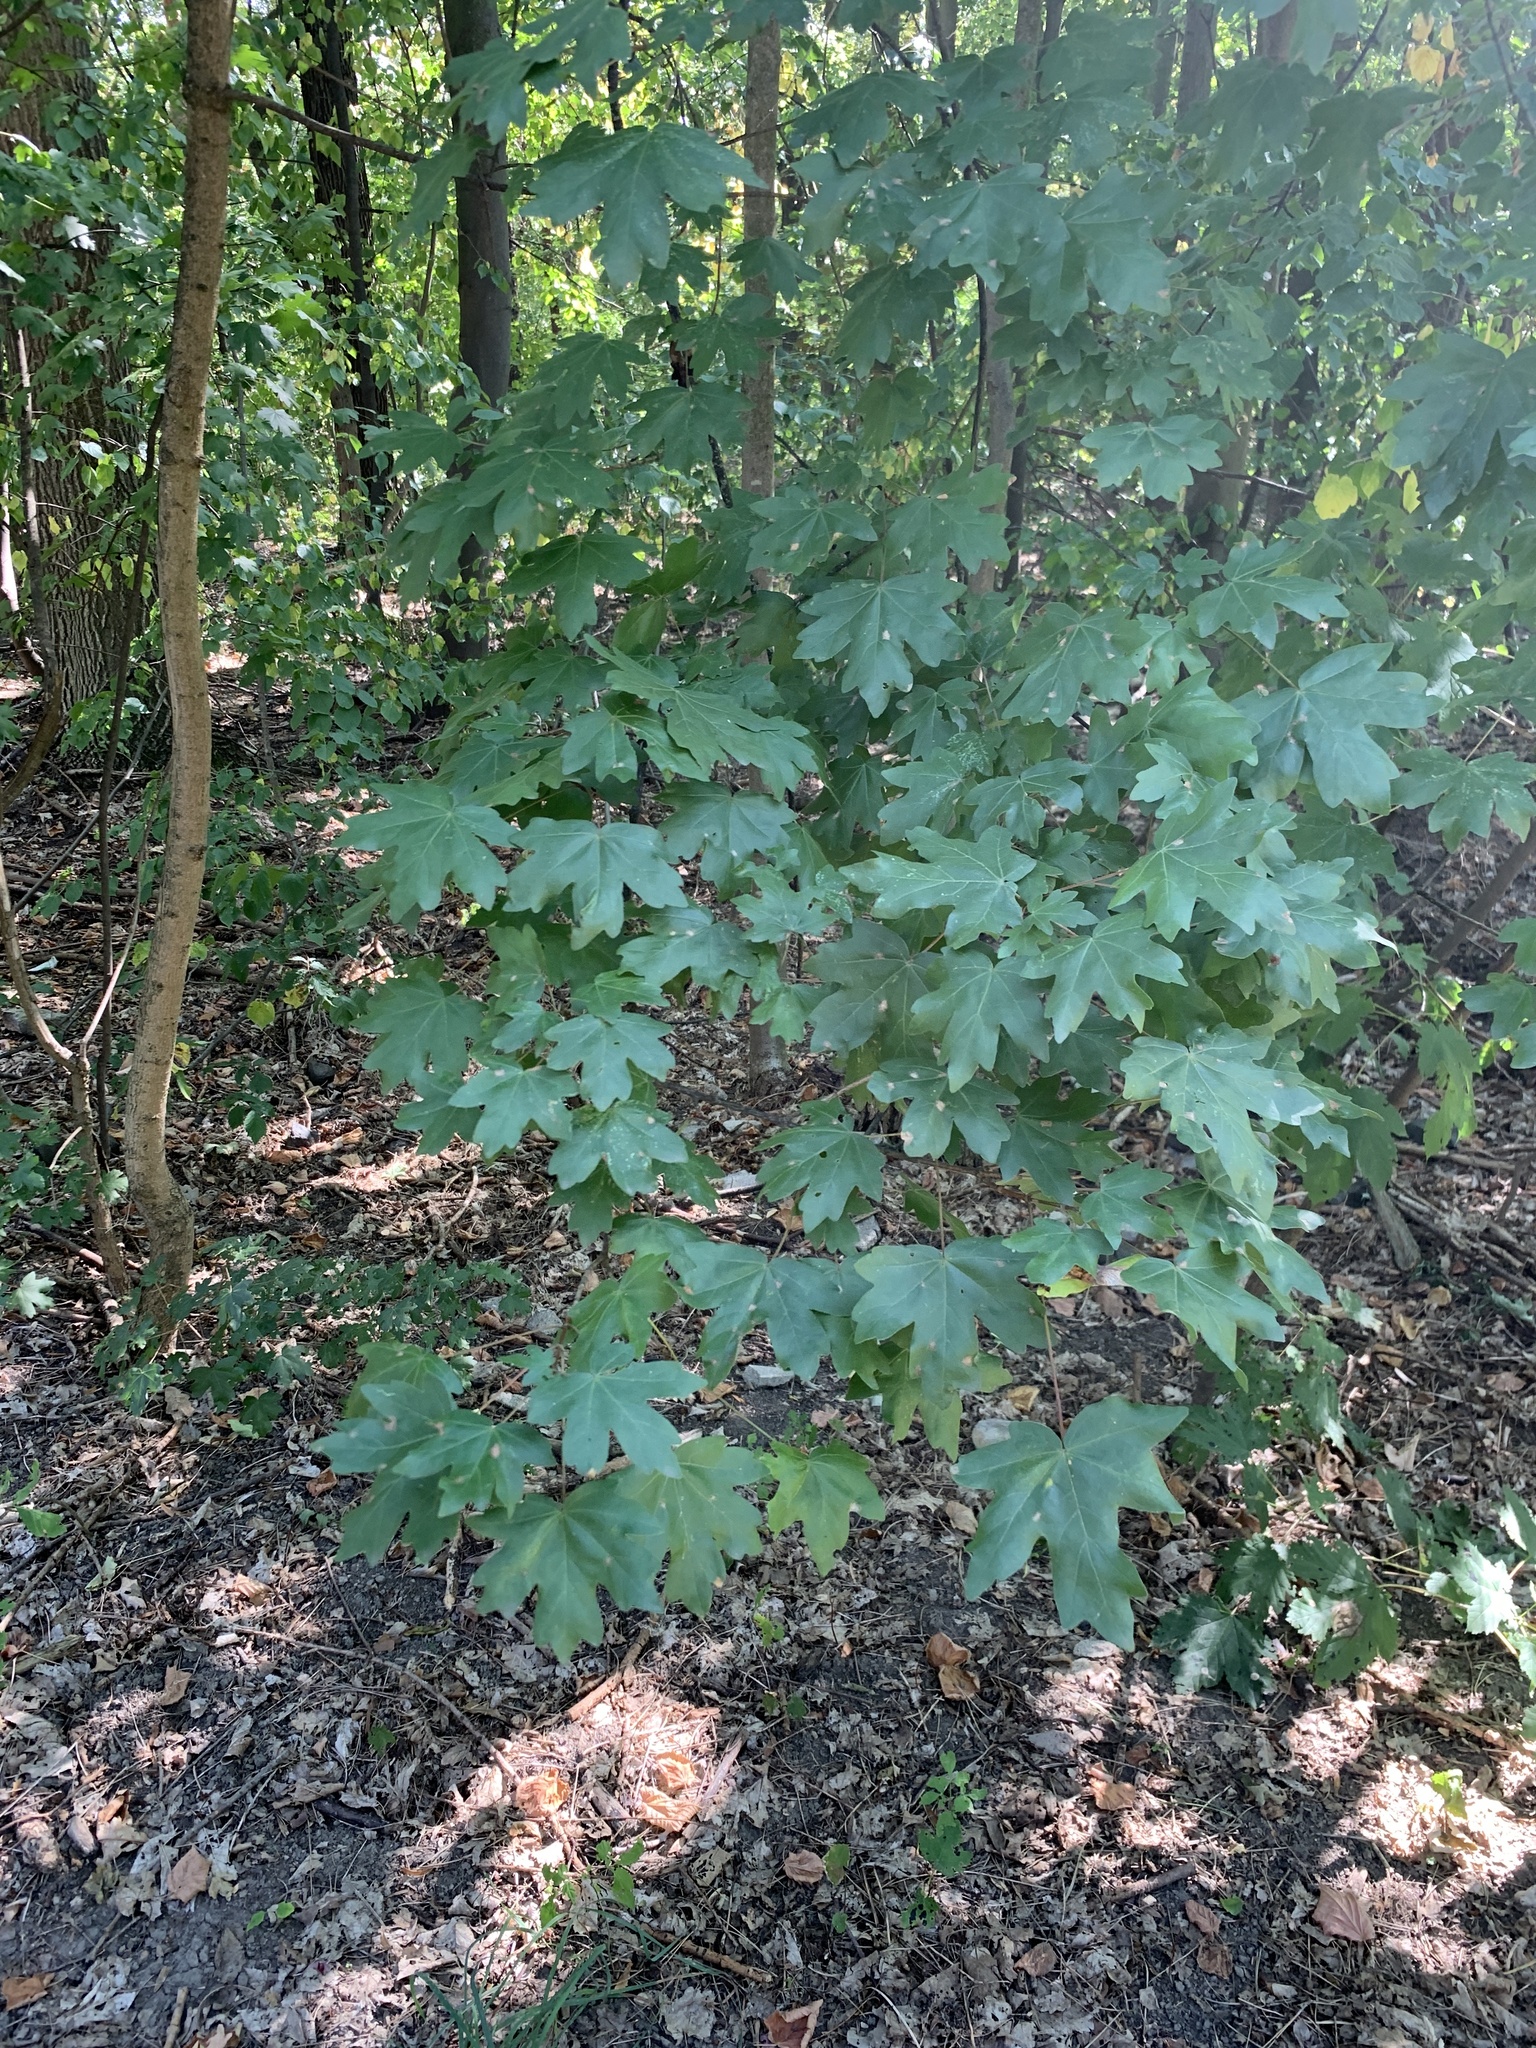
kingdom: Plantae
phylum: Tracheophyta
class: Magnoliopsida
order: Sapindales
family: Sapindaceae
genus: Acer
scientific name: Acer campestre
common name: Field maple
